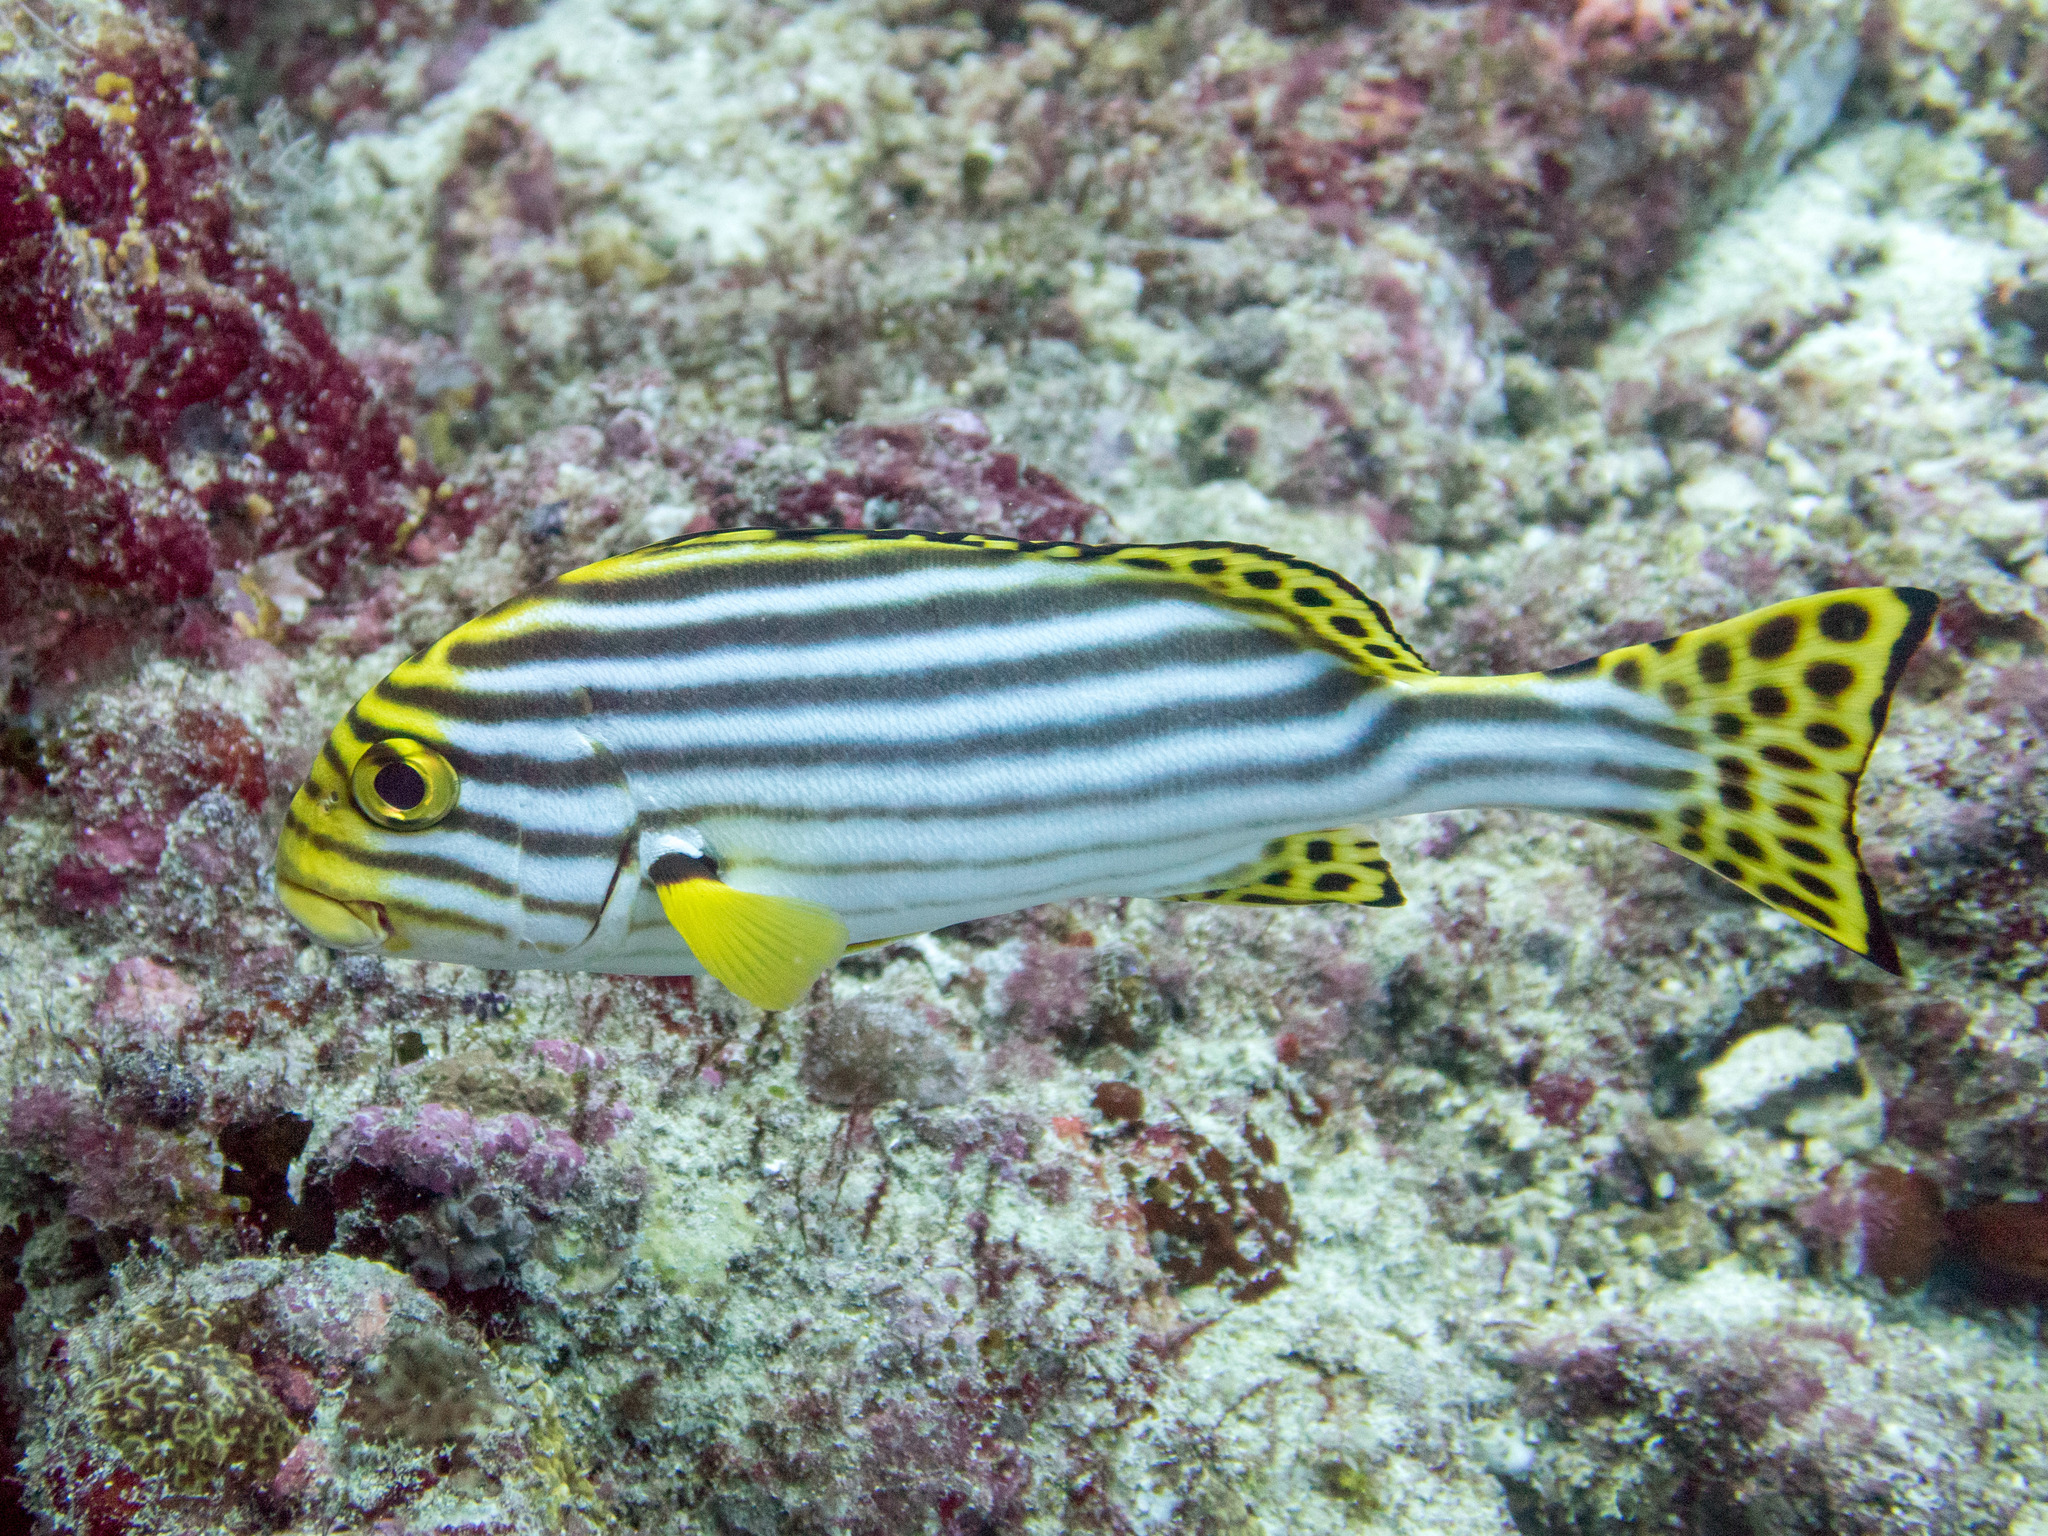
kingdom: Animalia
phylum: Chordata
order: Perciformes
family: Haemulidae
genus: Plectorhinchus
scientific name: Plectorhinchus vittatus
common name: Oriental sweetlips
